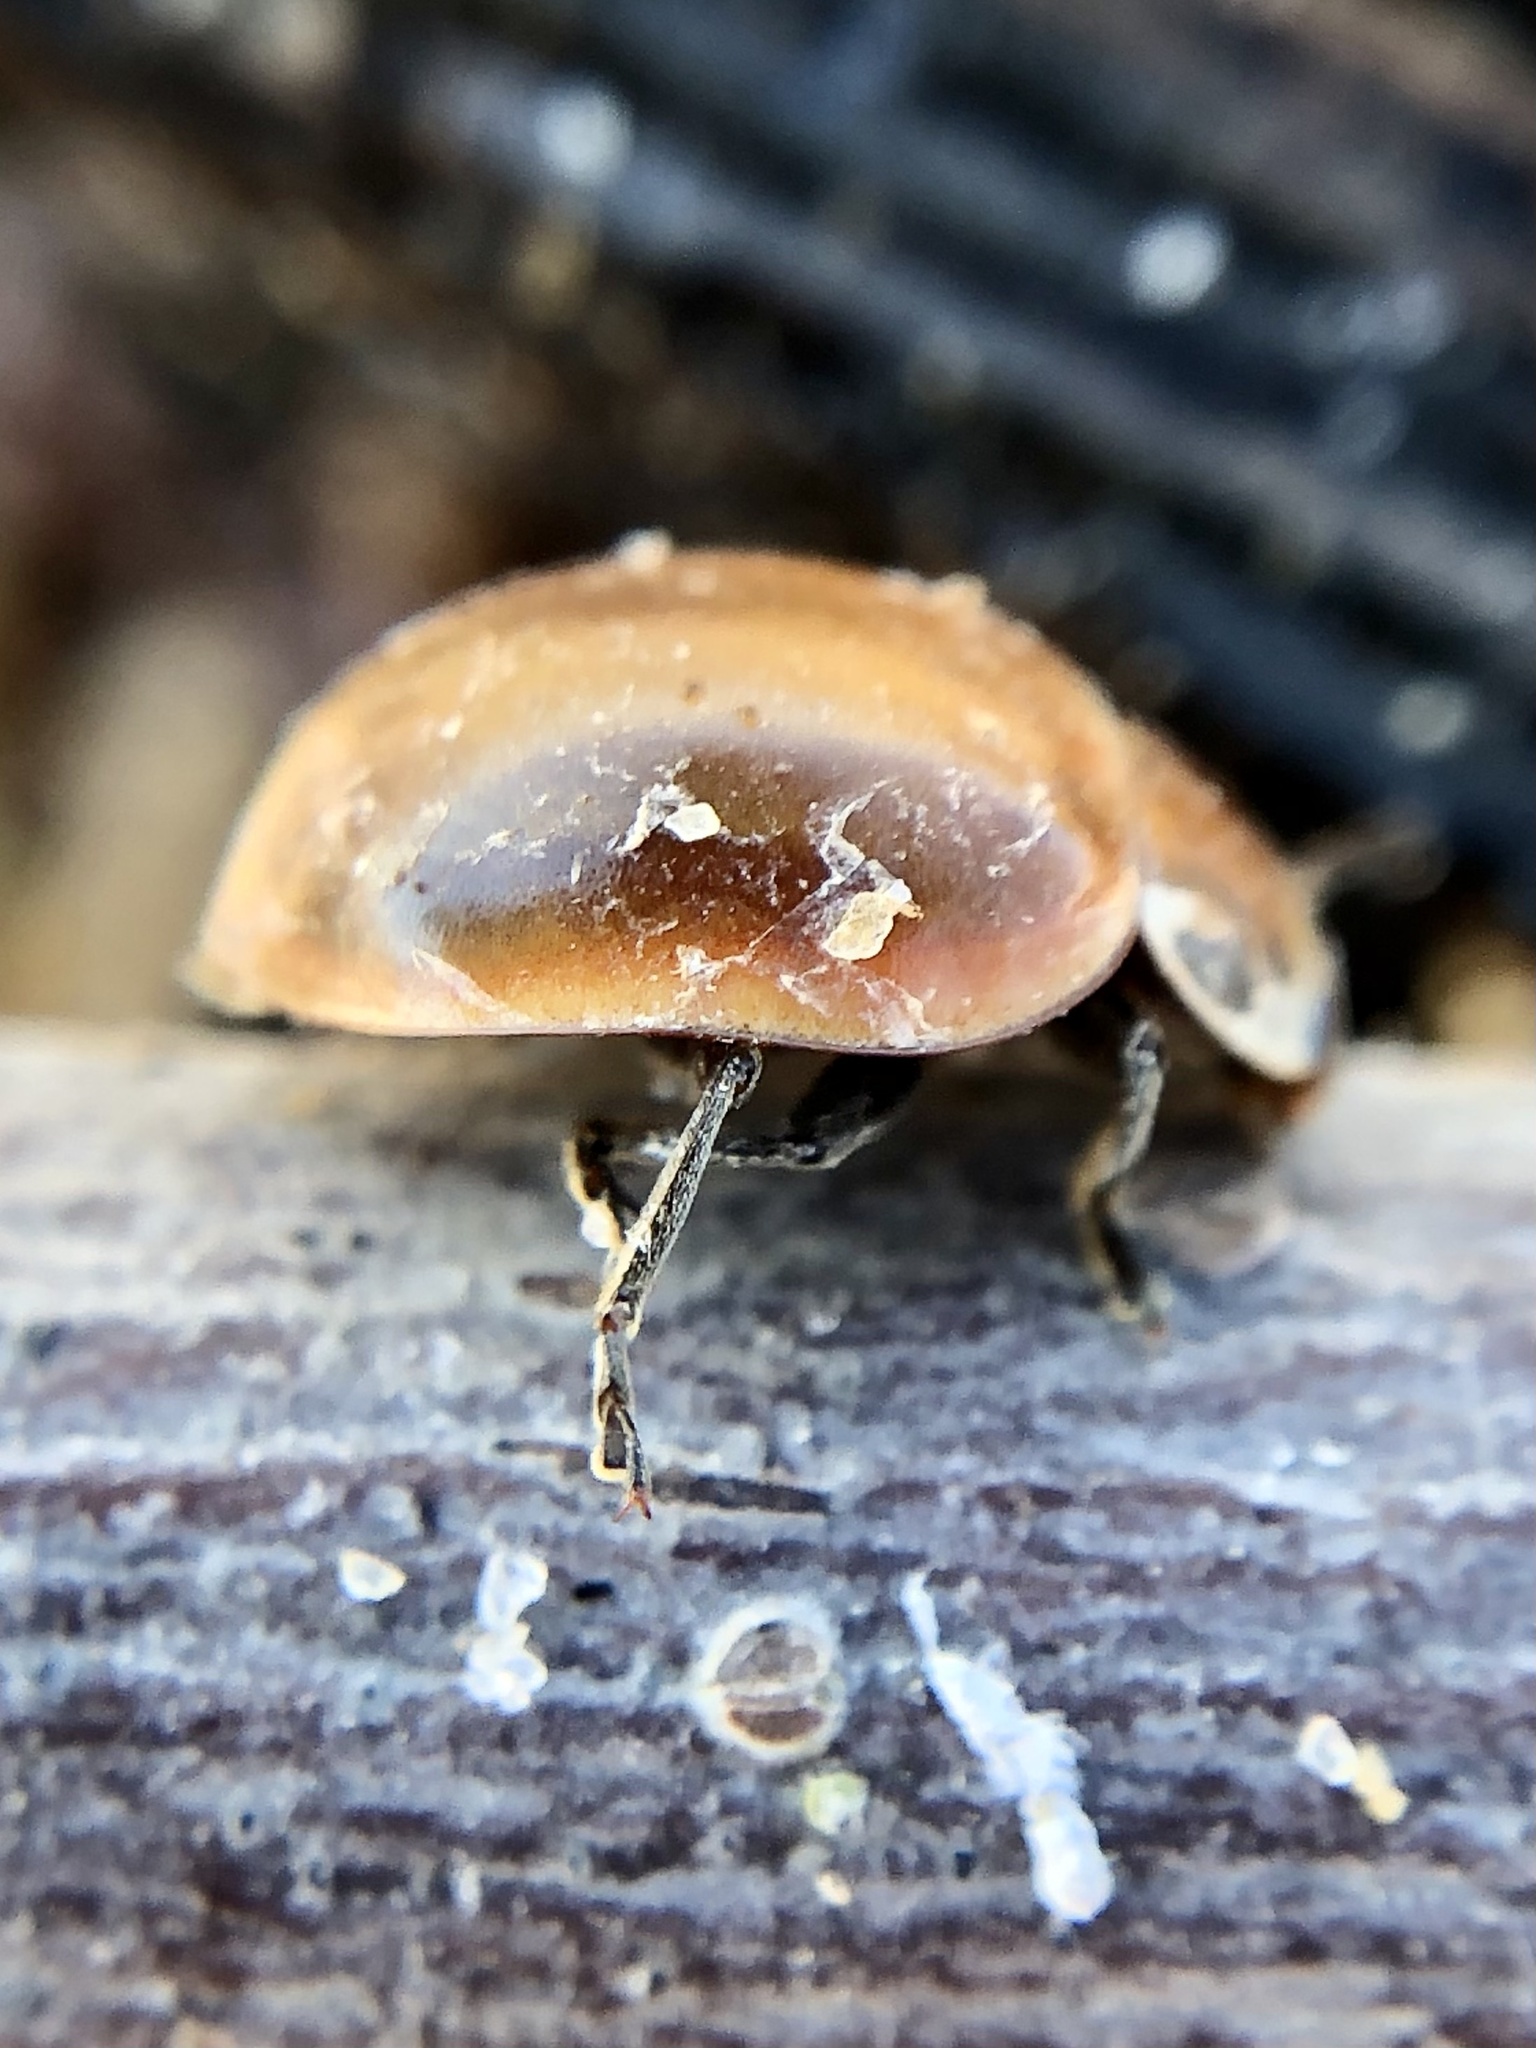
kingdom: Animalia
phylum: Arthropoda
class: Insecta
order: Coleoptera
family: Coccinellidae
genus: Myzia
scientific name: Myzia pullata
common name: Streaked lady beetle
